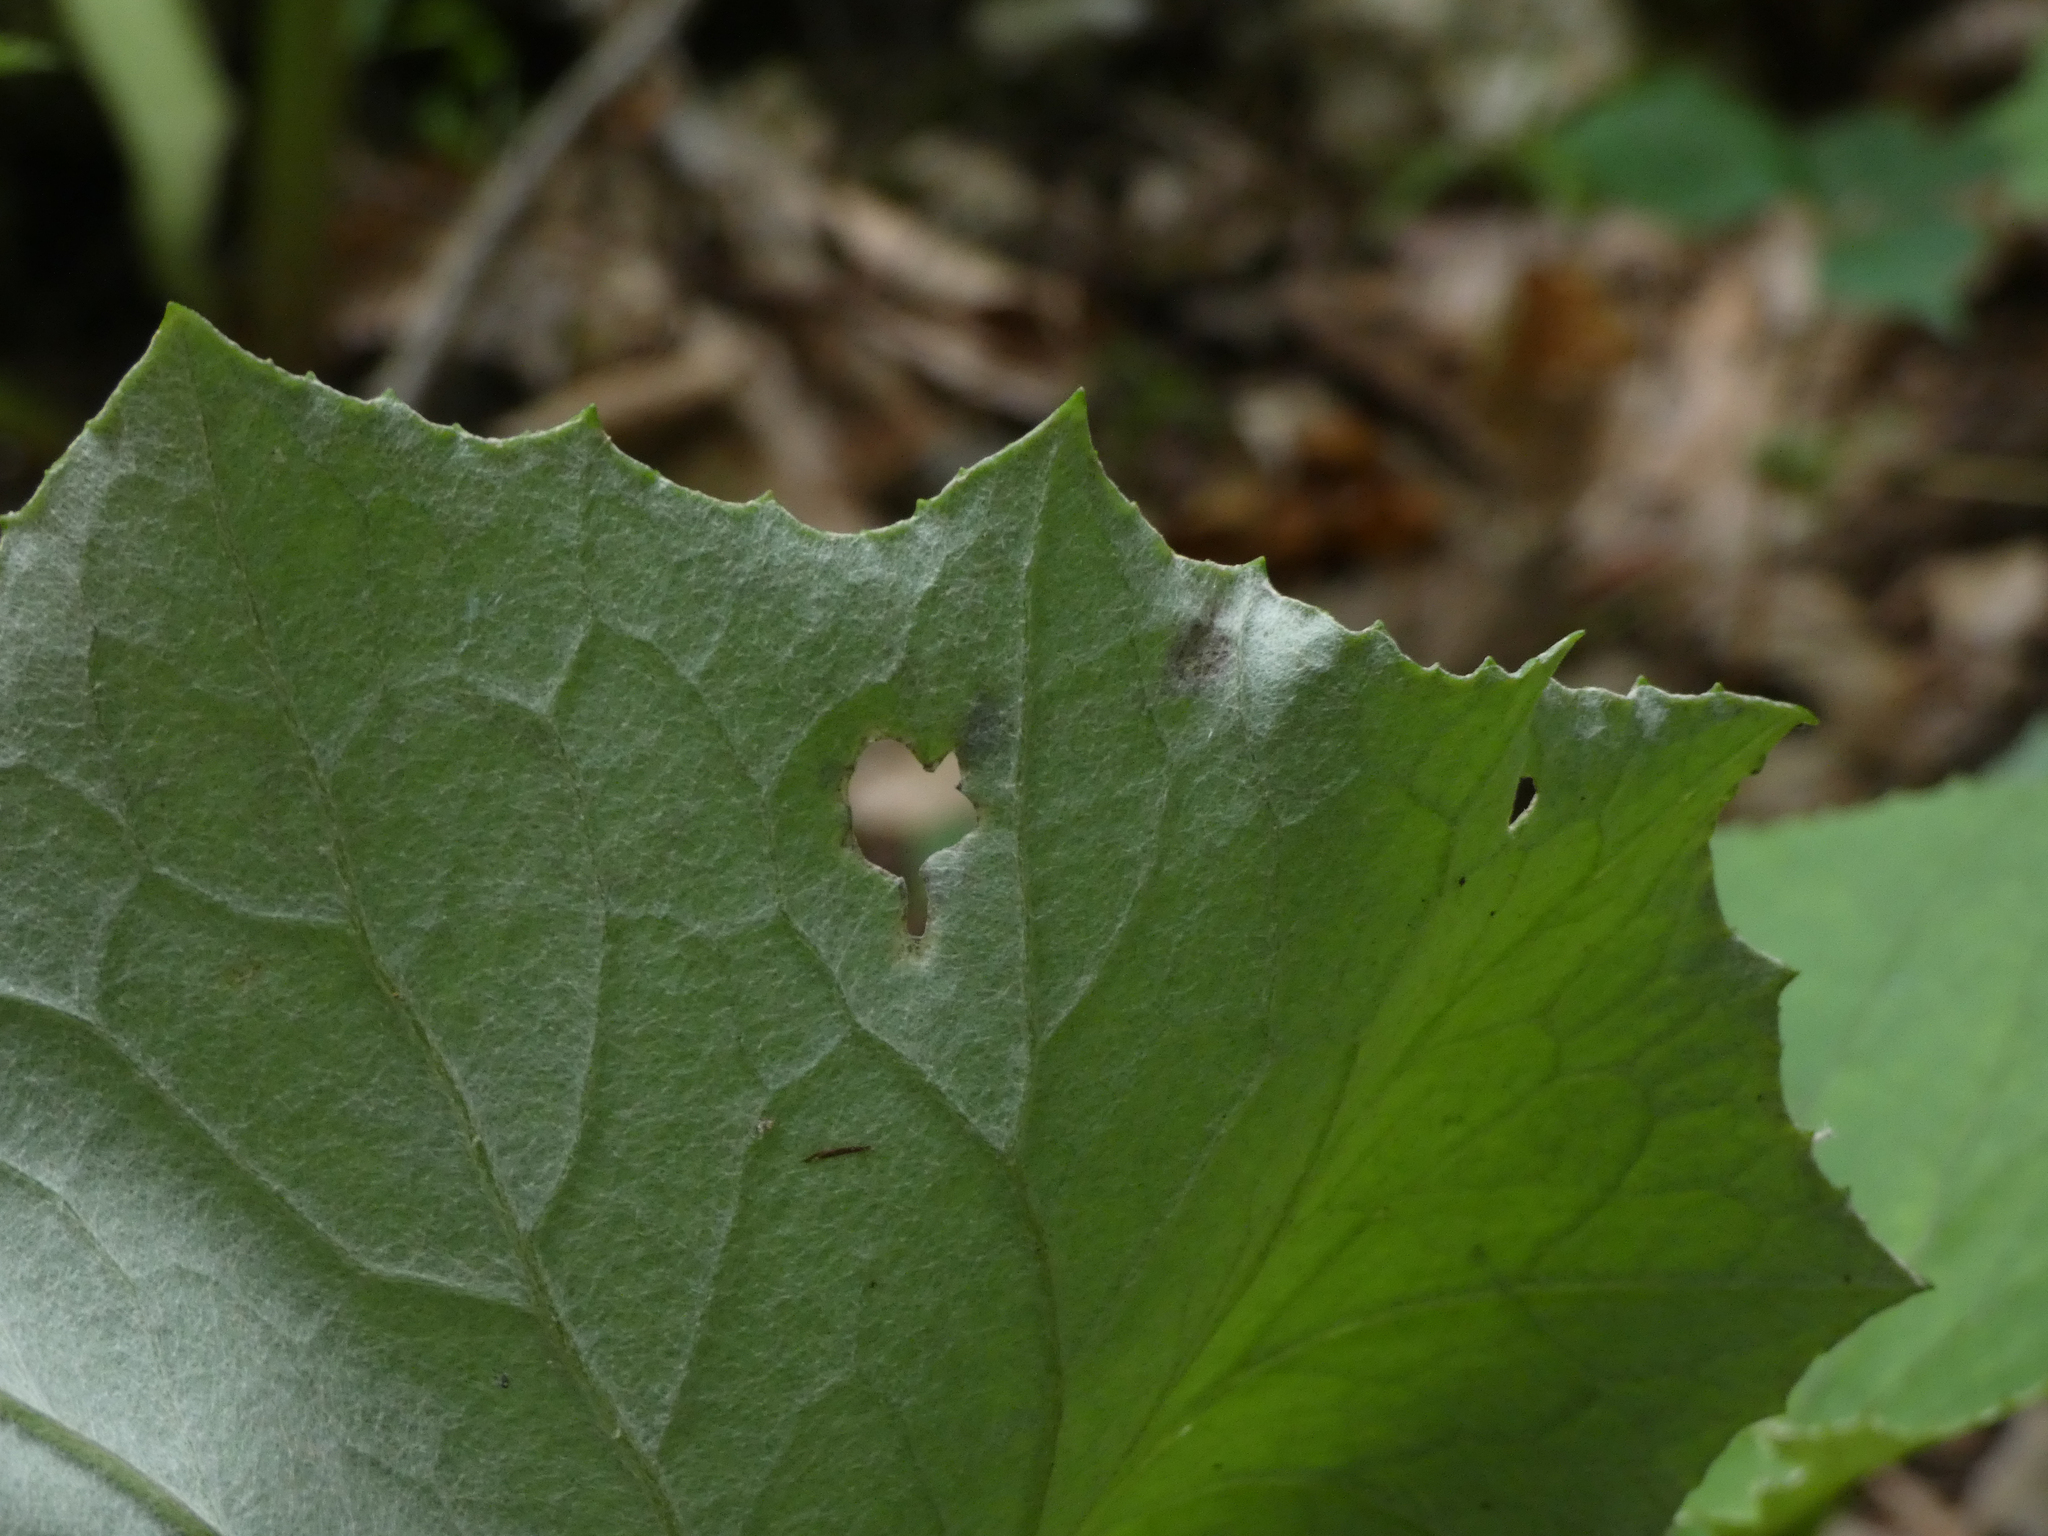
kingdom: Animalia
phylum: Arthropoda
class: Insecta
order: Lepidoptera
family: Gracillariidae
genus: Phyllocnistis
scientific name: Phyllocnistis insignis
